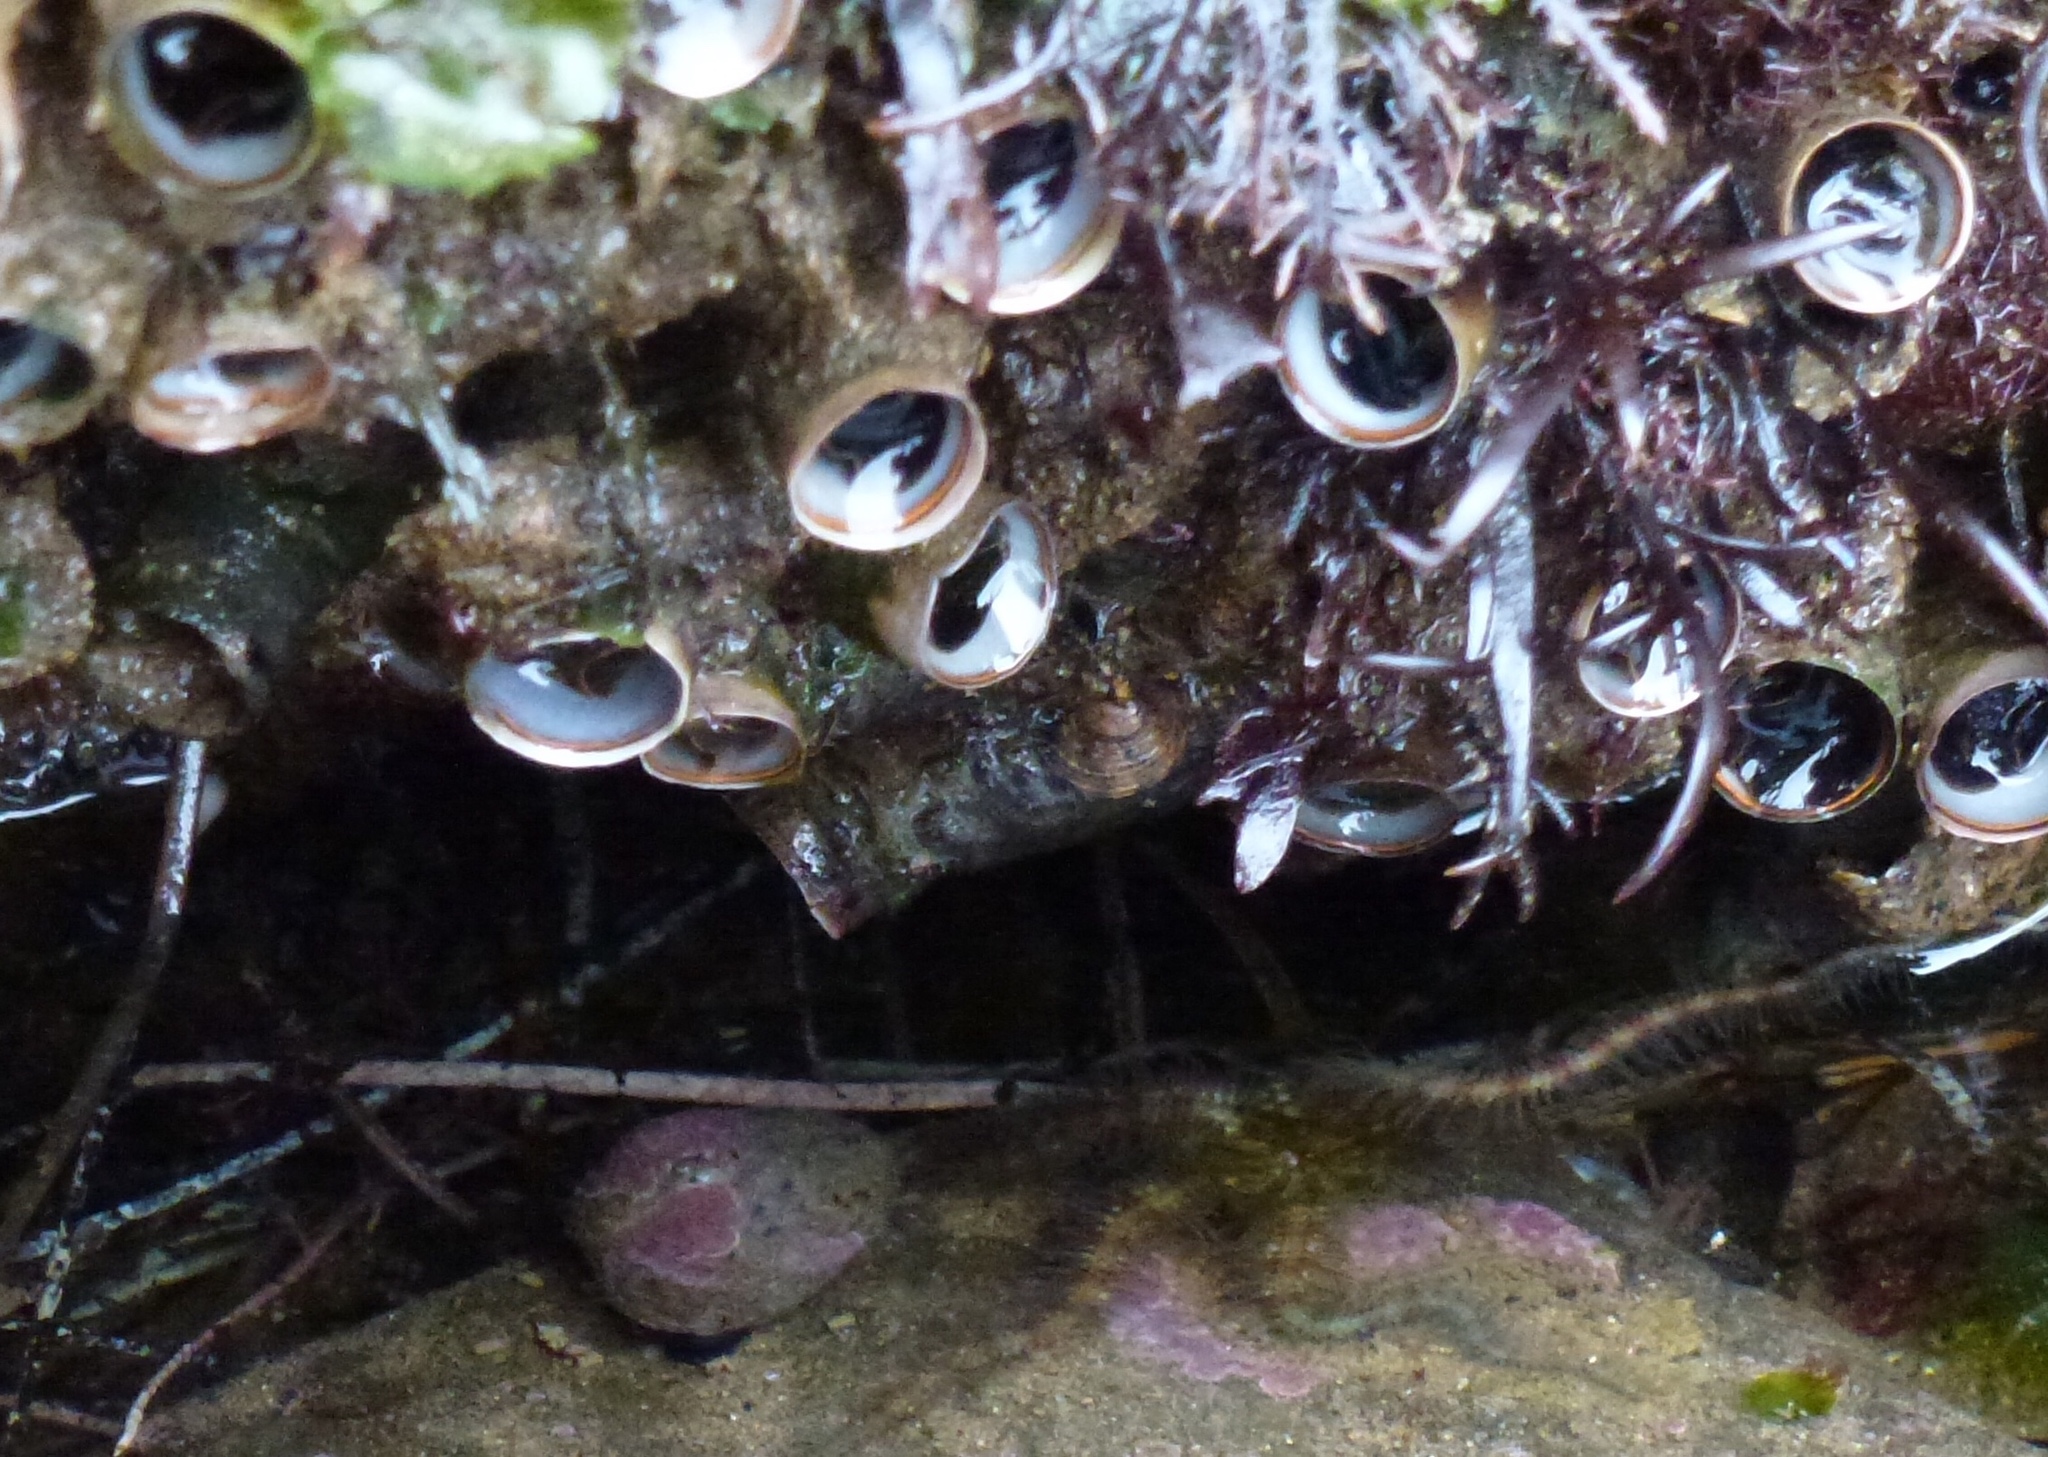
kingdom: Animalia
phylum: Mollusca
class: Gastropoda
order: Littorinimorpha
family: Vermetidae
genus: Thylacodes
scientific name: Thylacodes squamigerus
